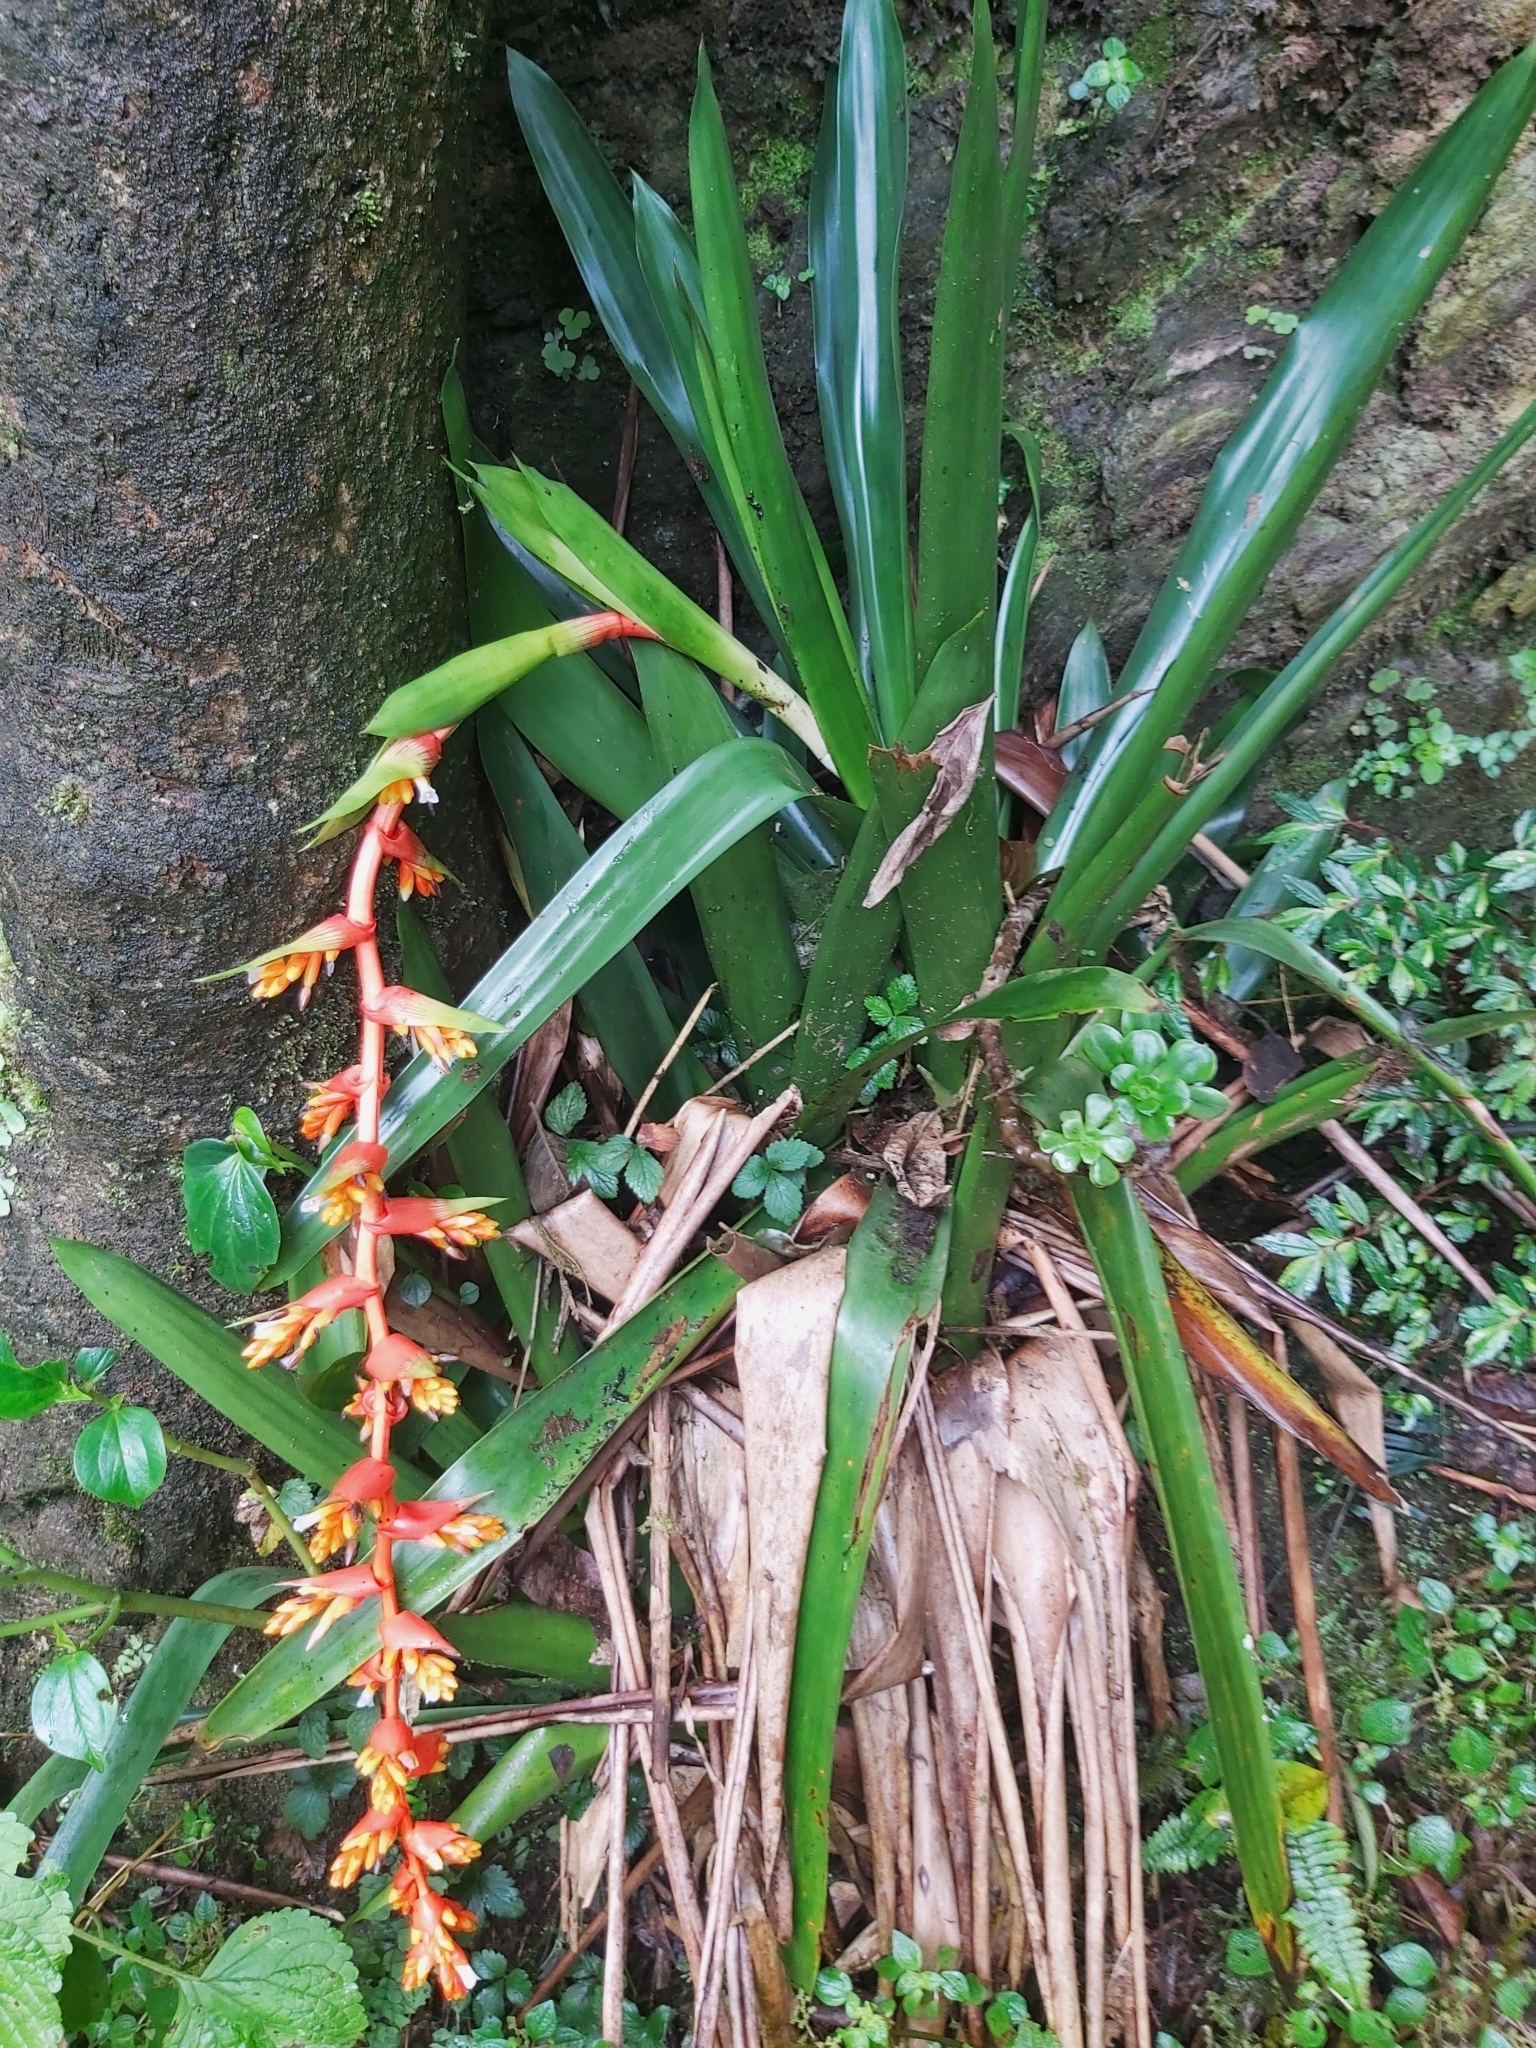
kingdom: Plantae
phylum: Tracheophyta
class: Liliopsida
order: Poales
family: Bromeliaceae
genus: Guzmania
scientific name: Guzmania multiflora
